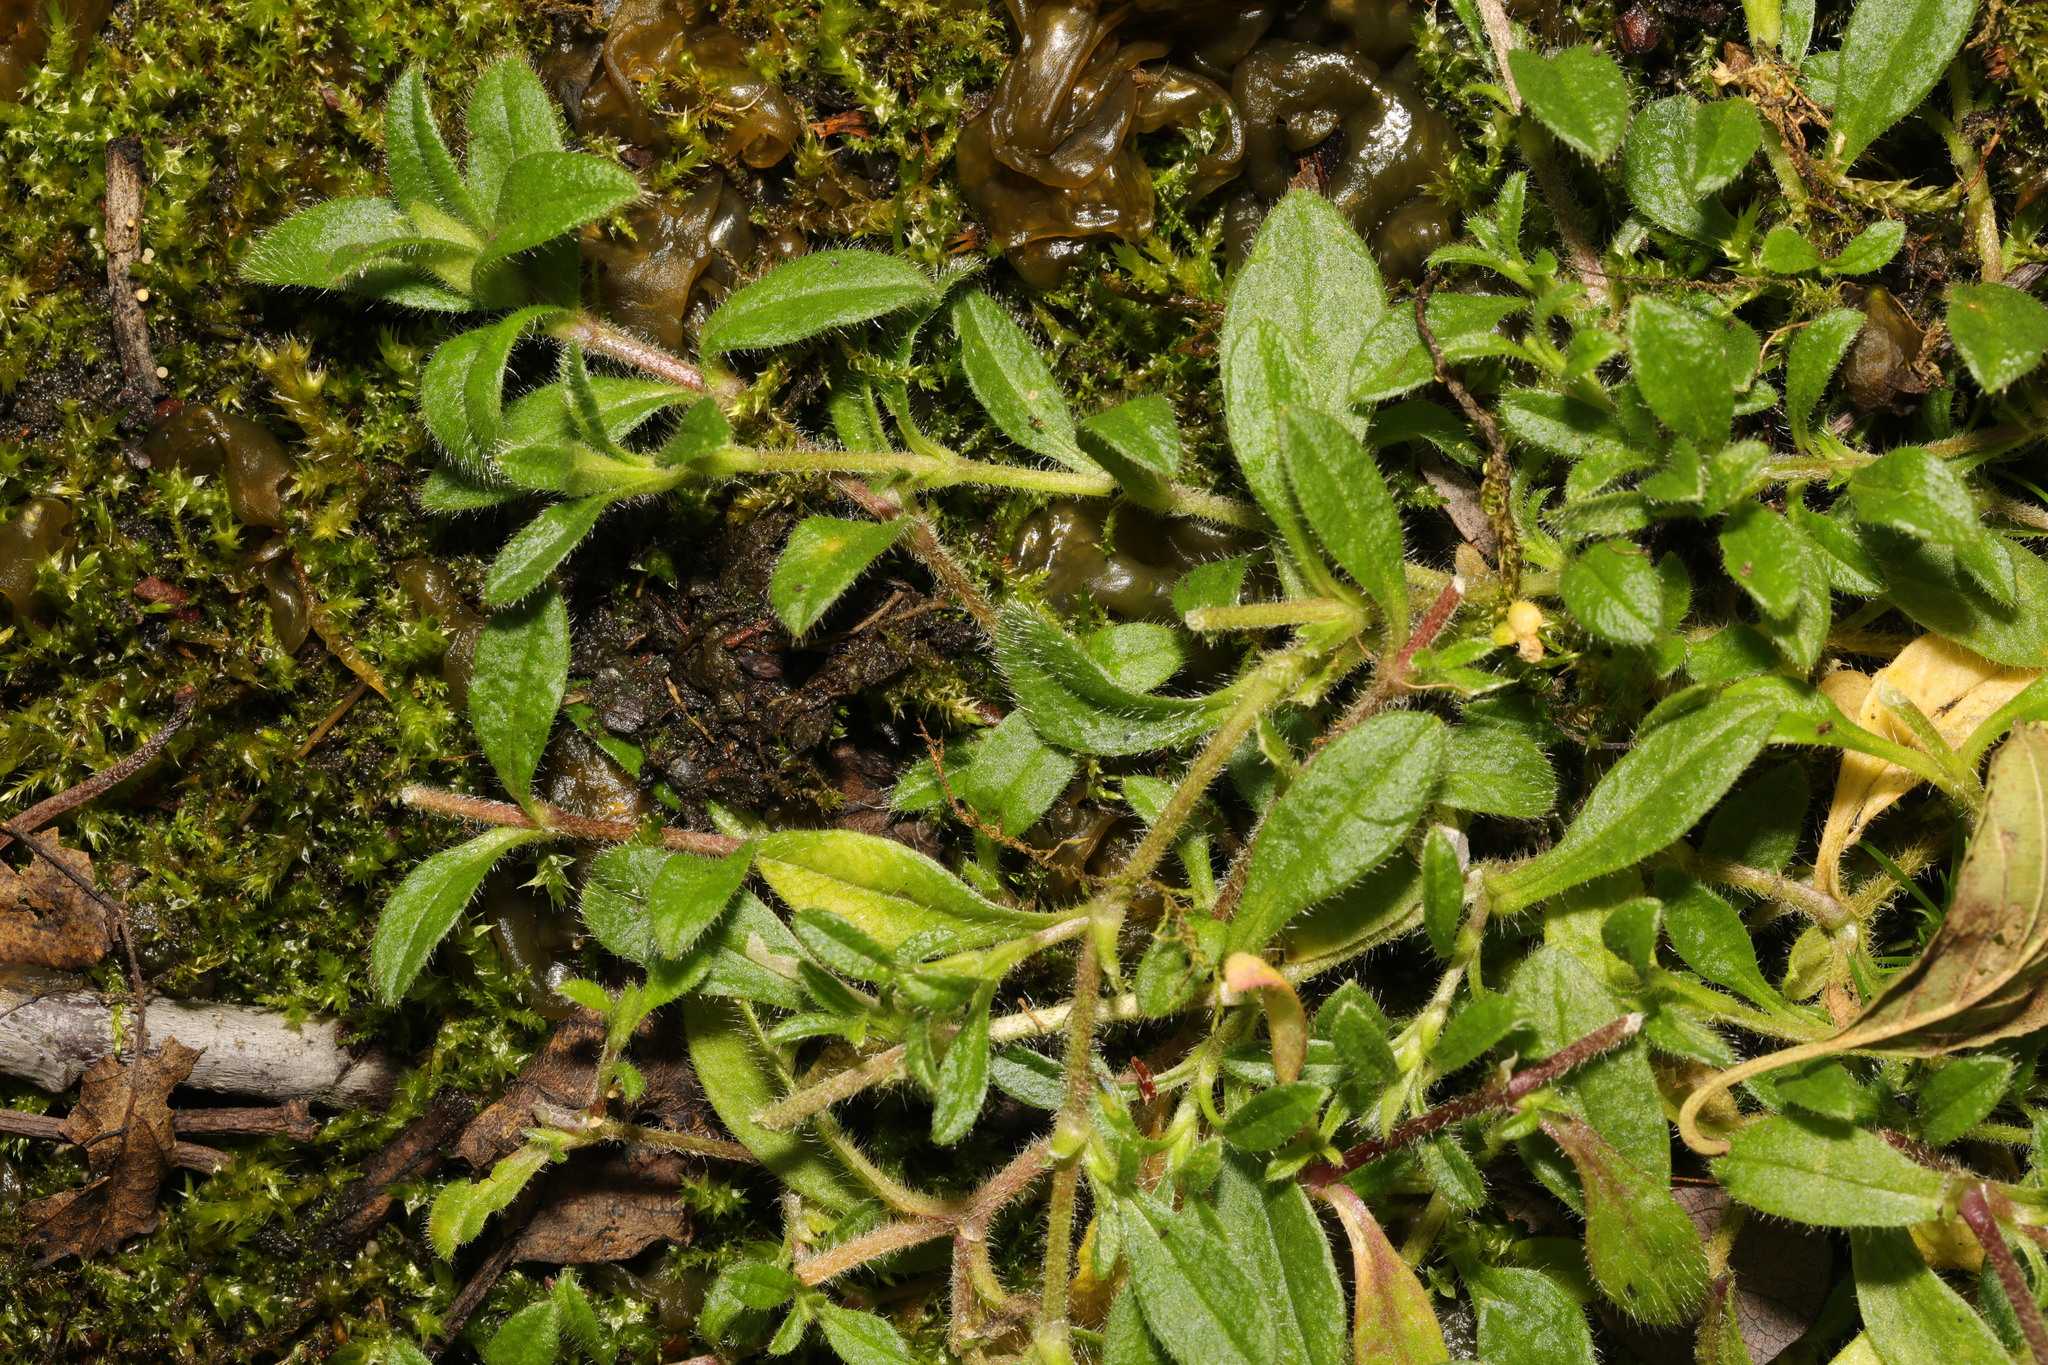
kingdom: Plantae
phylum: Tracheophyta
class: Magnoliopsida
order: Caryophyllales
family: Caryophyllaceae
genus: Cerastium
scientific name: Cerastium fontanum
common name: Common mouse-ear
